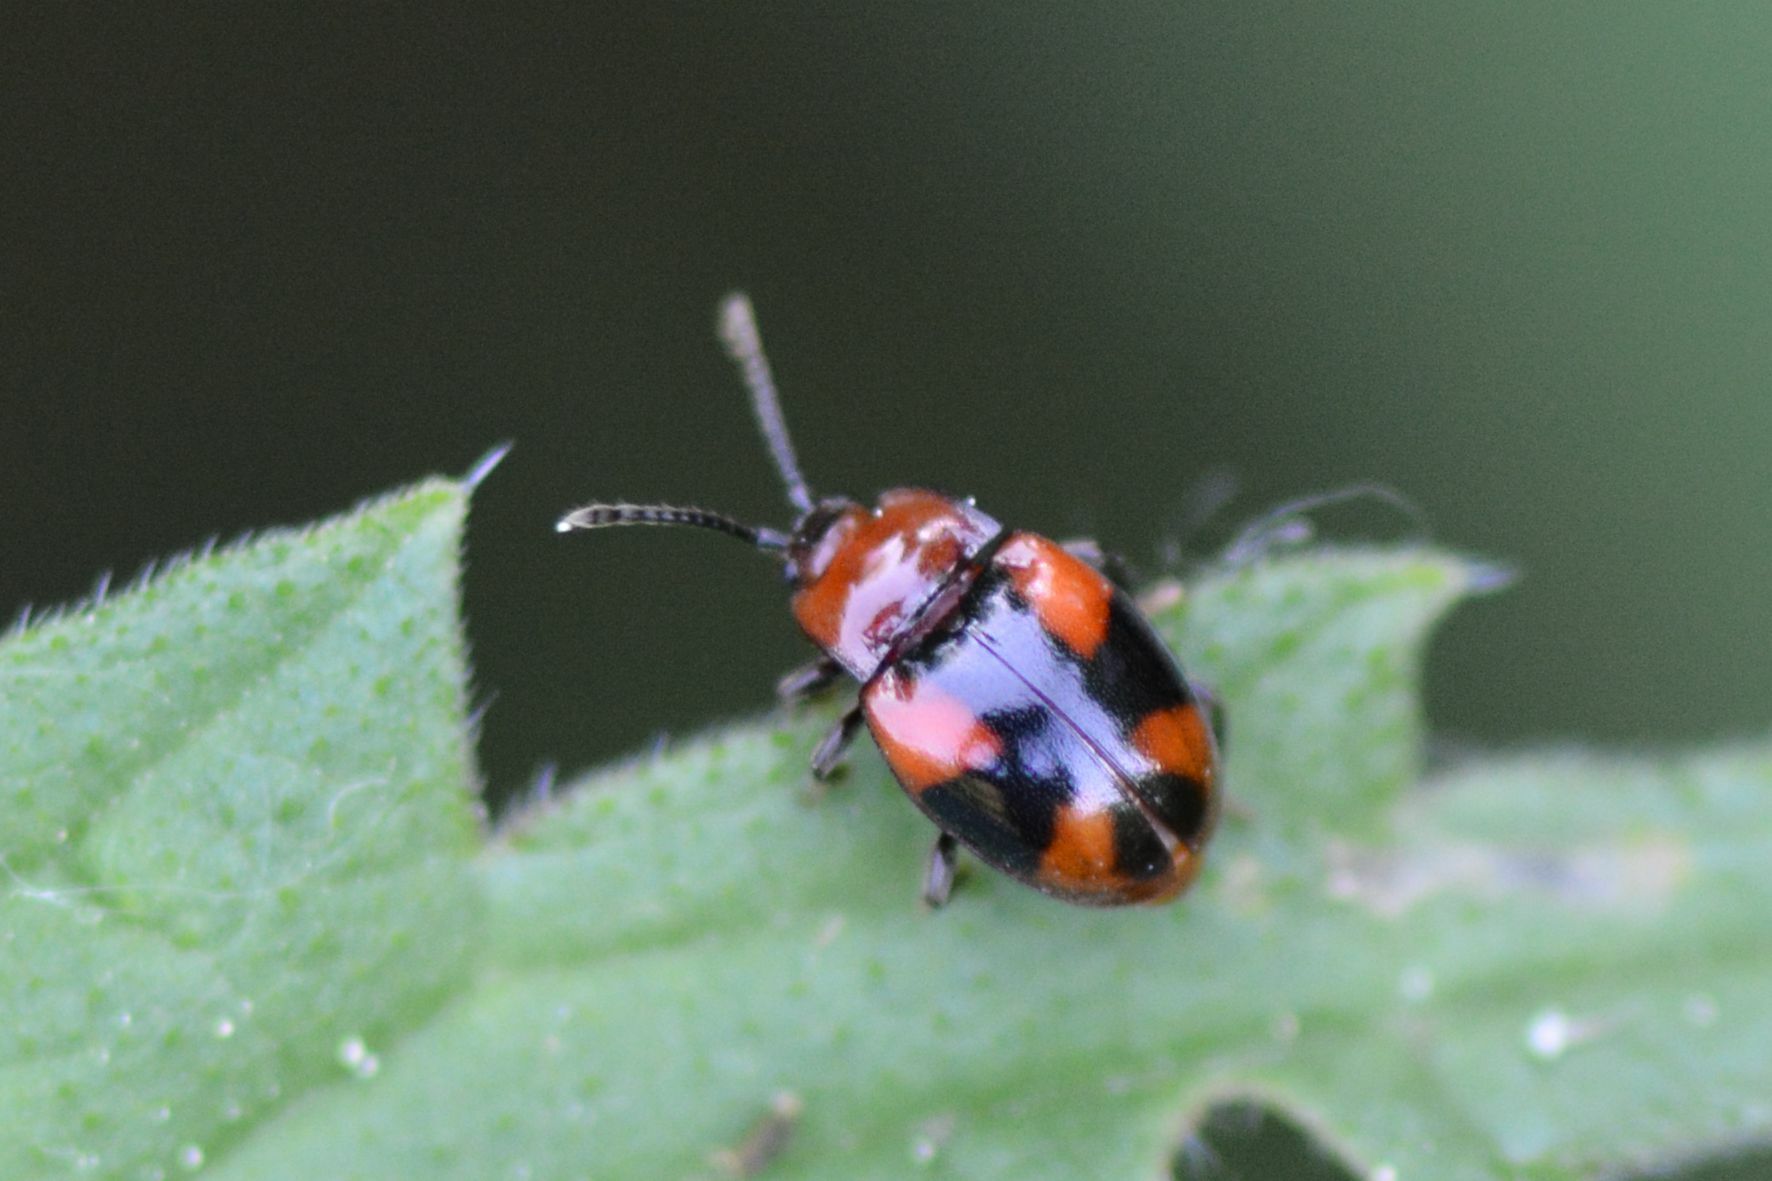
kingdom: Animalia
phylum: Arthropoda
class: Insecta
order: Coleoptera
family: Endomychidae
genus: Mycetina
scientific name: Mycetina cruciata
